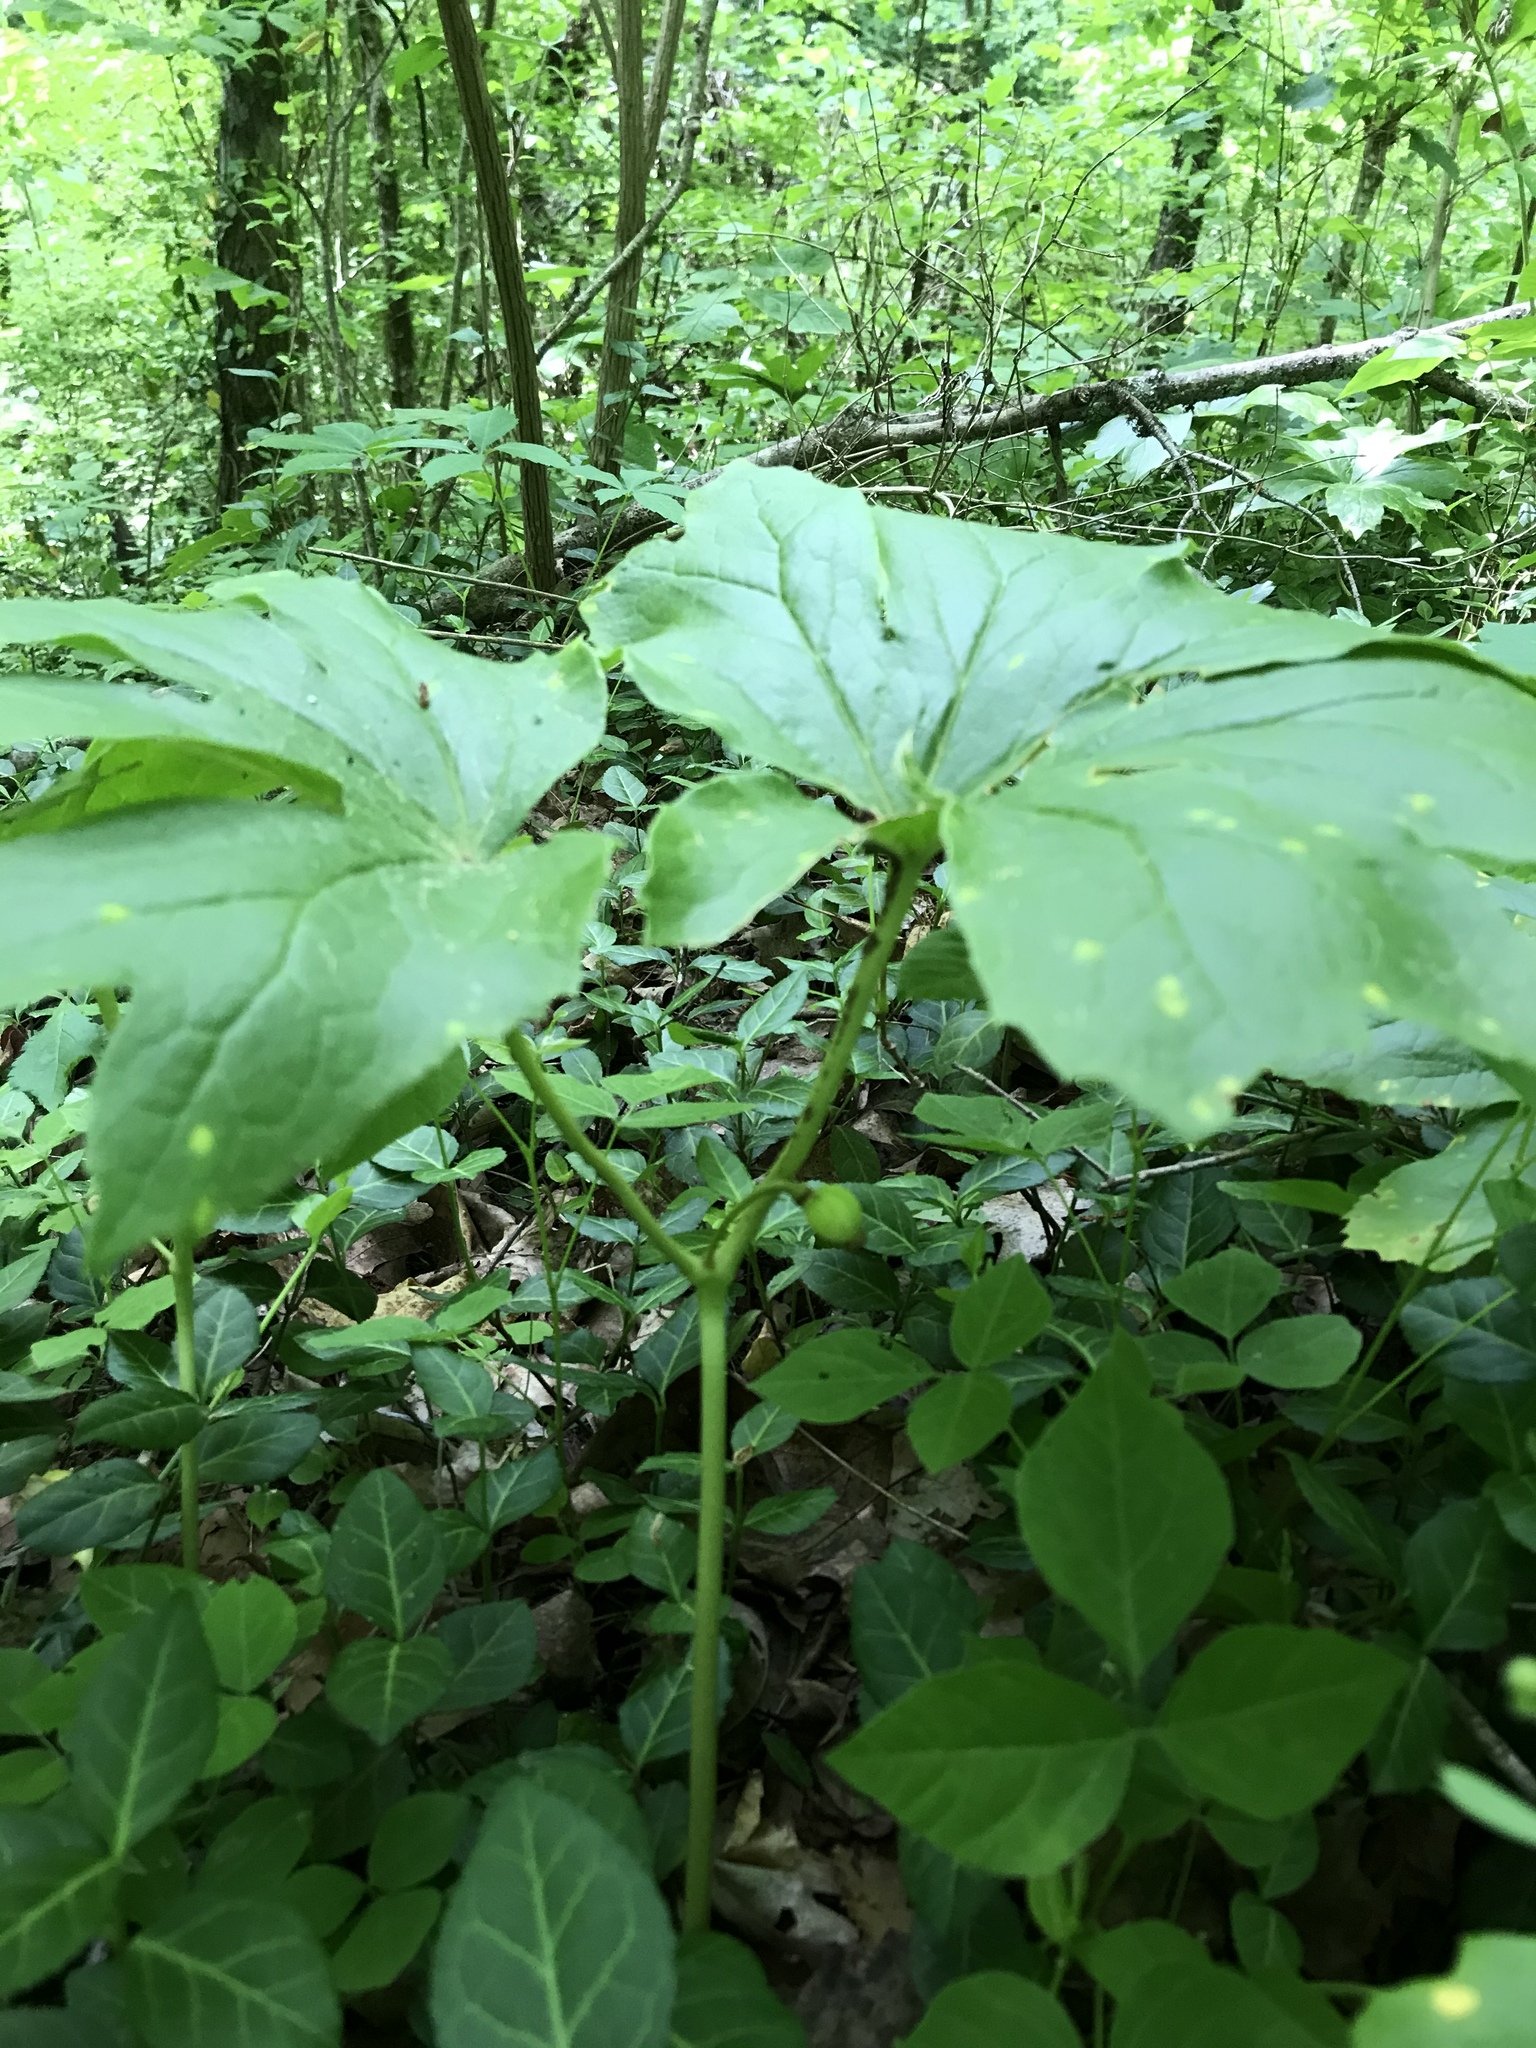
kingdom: Plantae
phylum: Tracheophyta
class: Magnoliopsida
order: Ranunculales
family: Berberidaceae
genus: Podophyllum
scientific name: Podophyllum peltatum
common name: Wild mandrake
